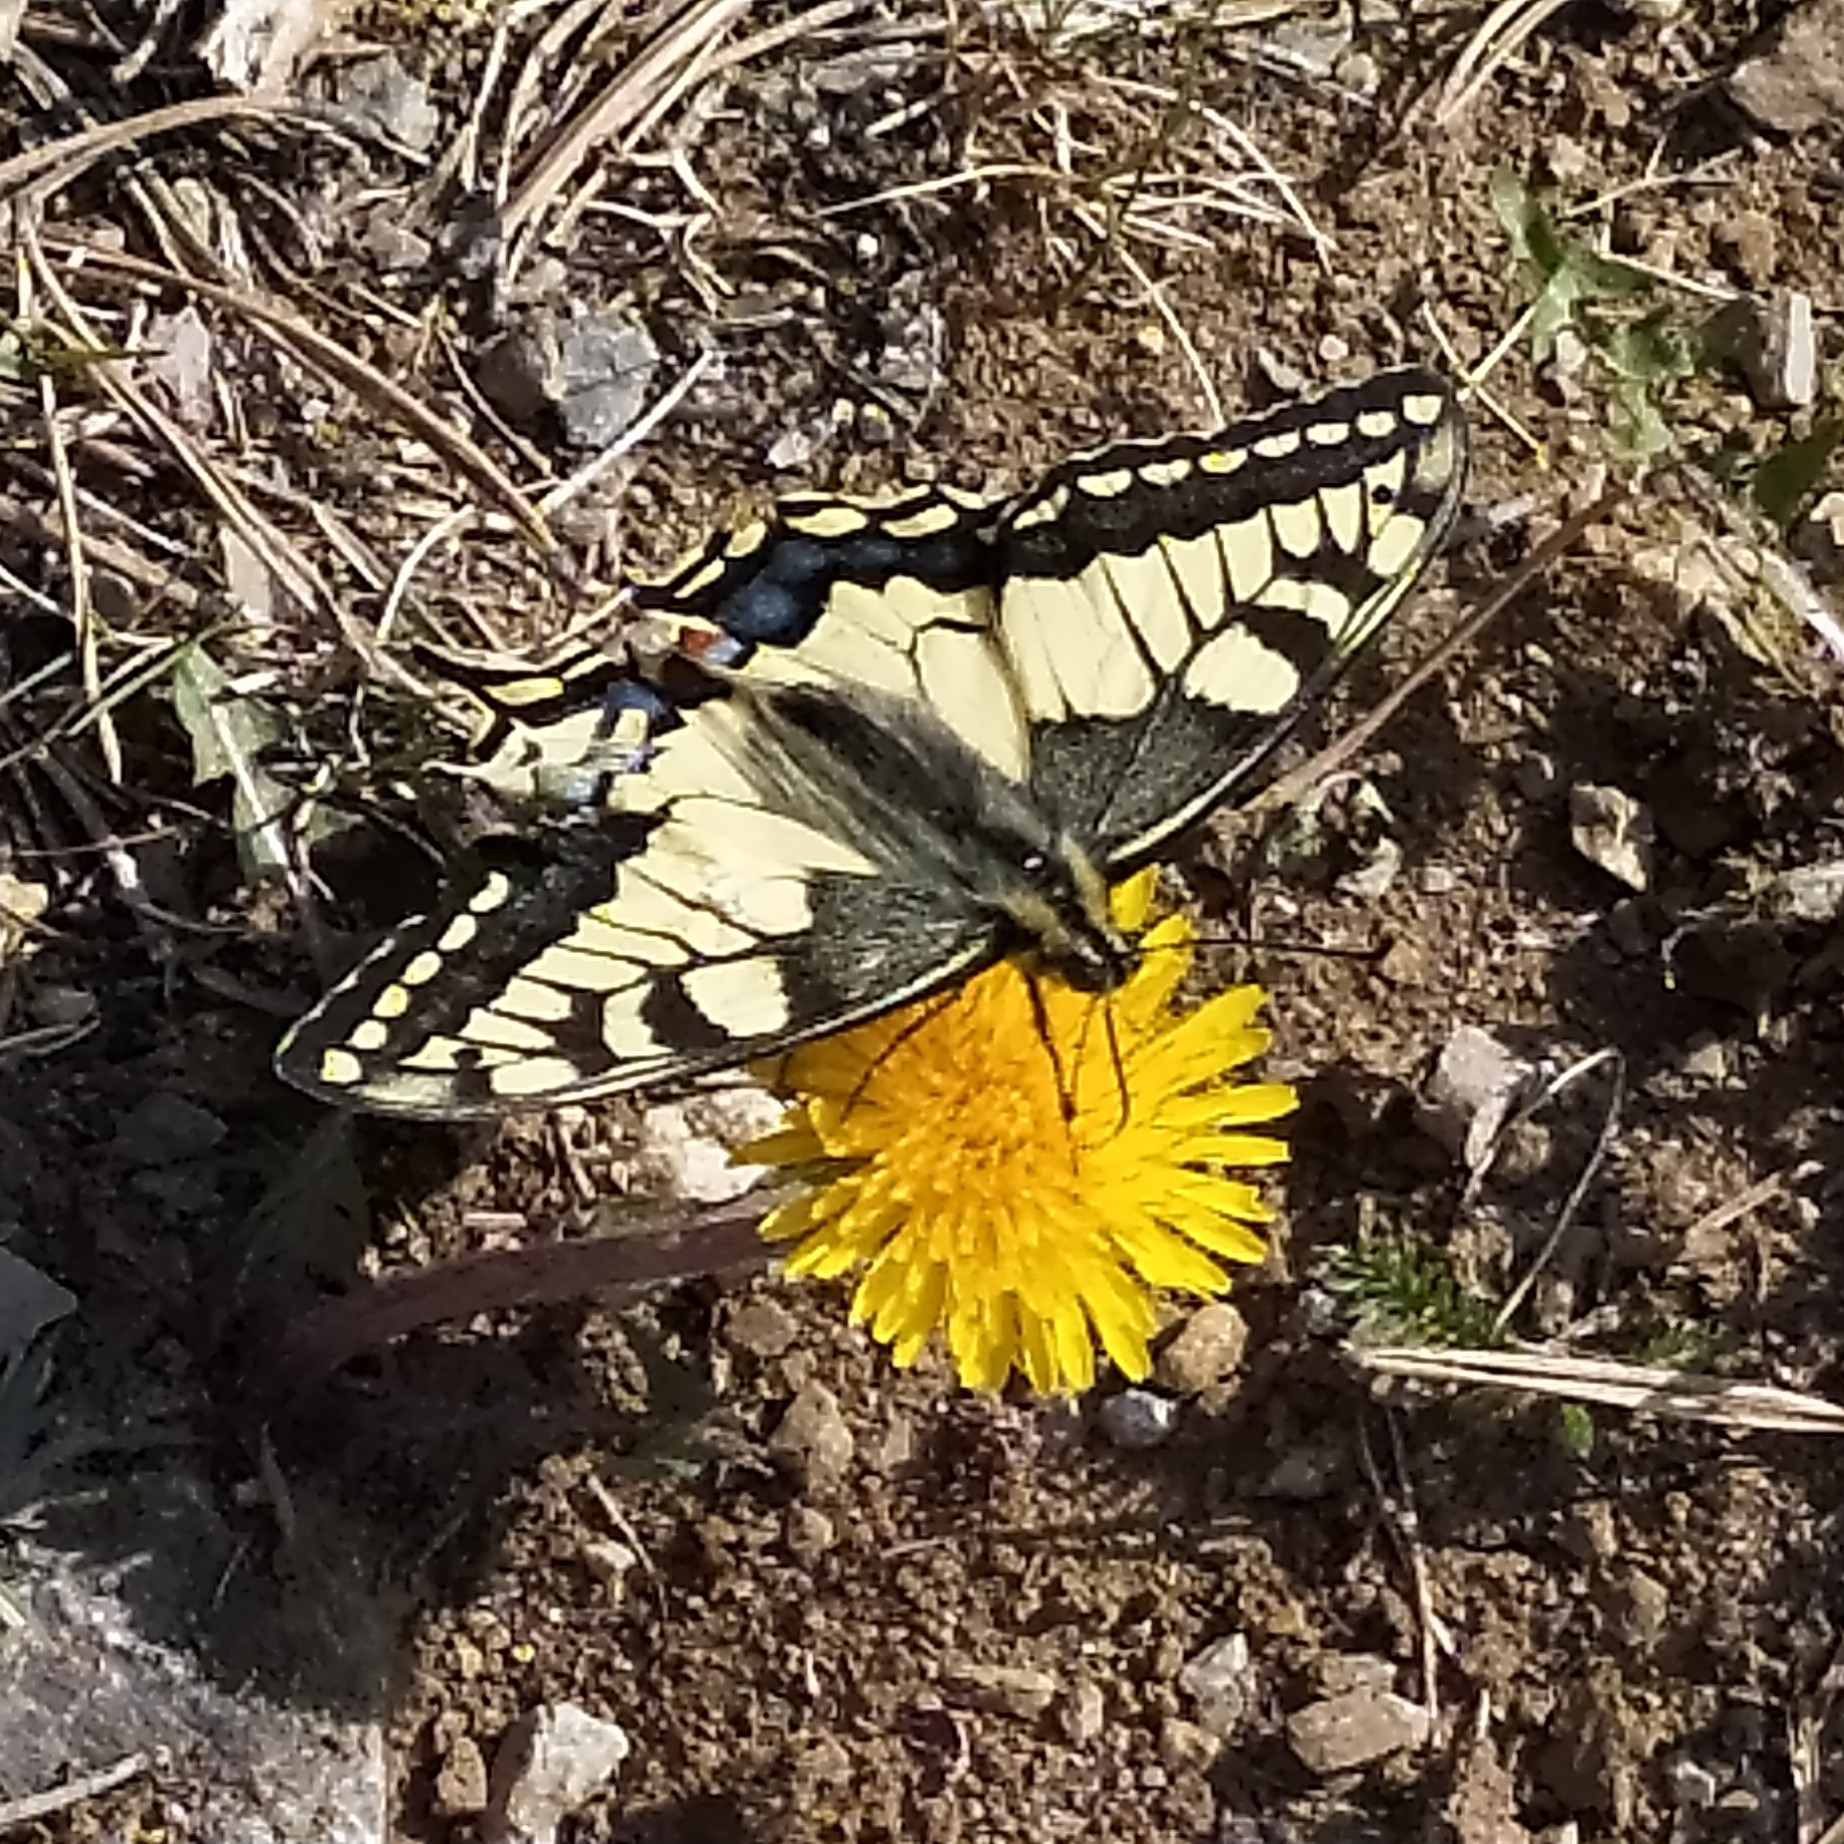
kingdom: Animalia
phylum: Arthropoda
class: Insecta
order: Lepidoptera
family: Papilionidae
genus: Papilio
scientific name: Papilio machaon
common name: Swallowtail
